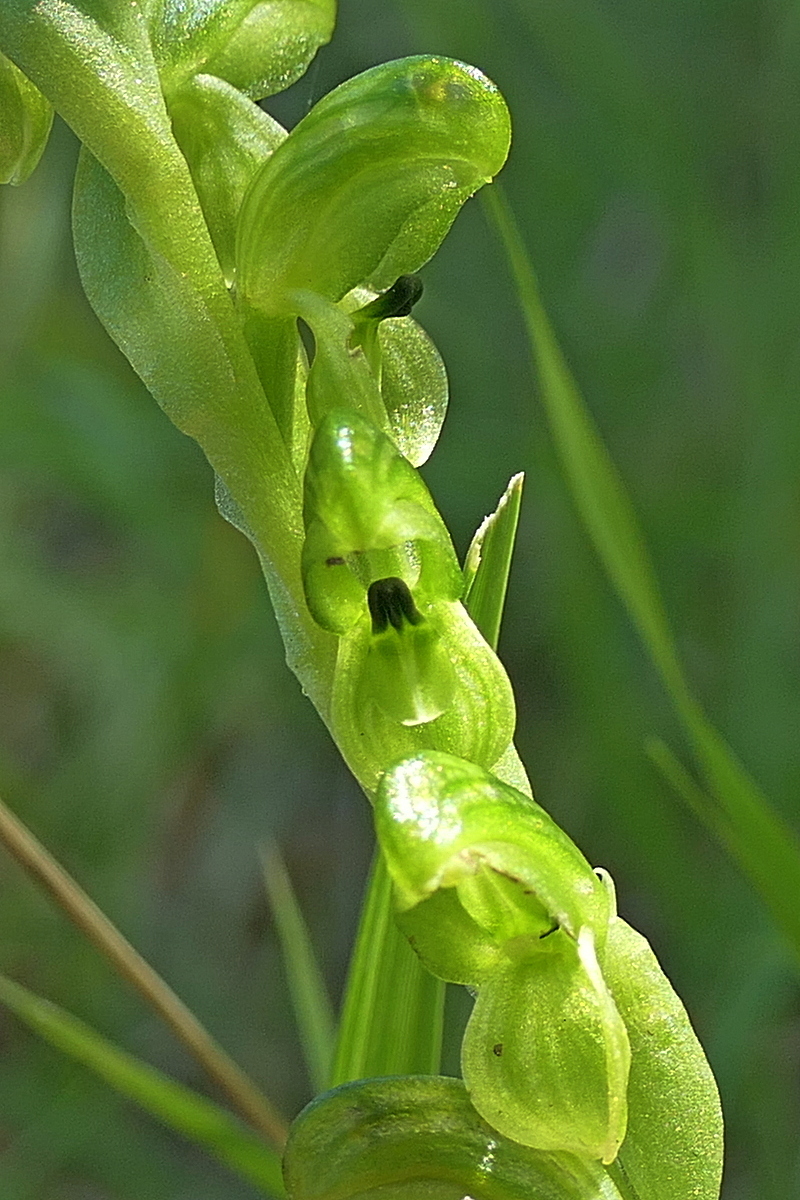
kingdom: Plantae
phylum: Tracheophyta
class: Liliopsida
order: Asparagales
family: Orchidaceae
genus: Pterostylis
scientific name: Pterostylis bicolor
